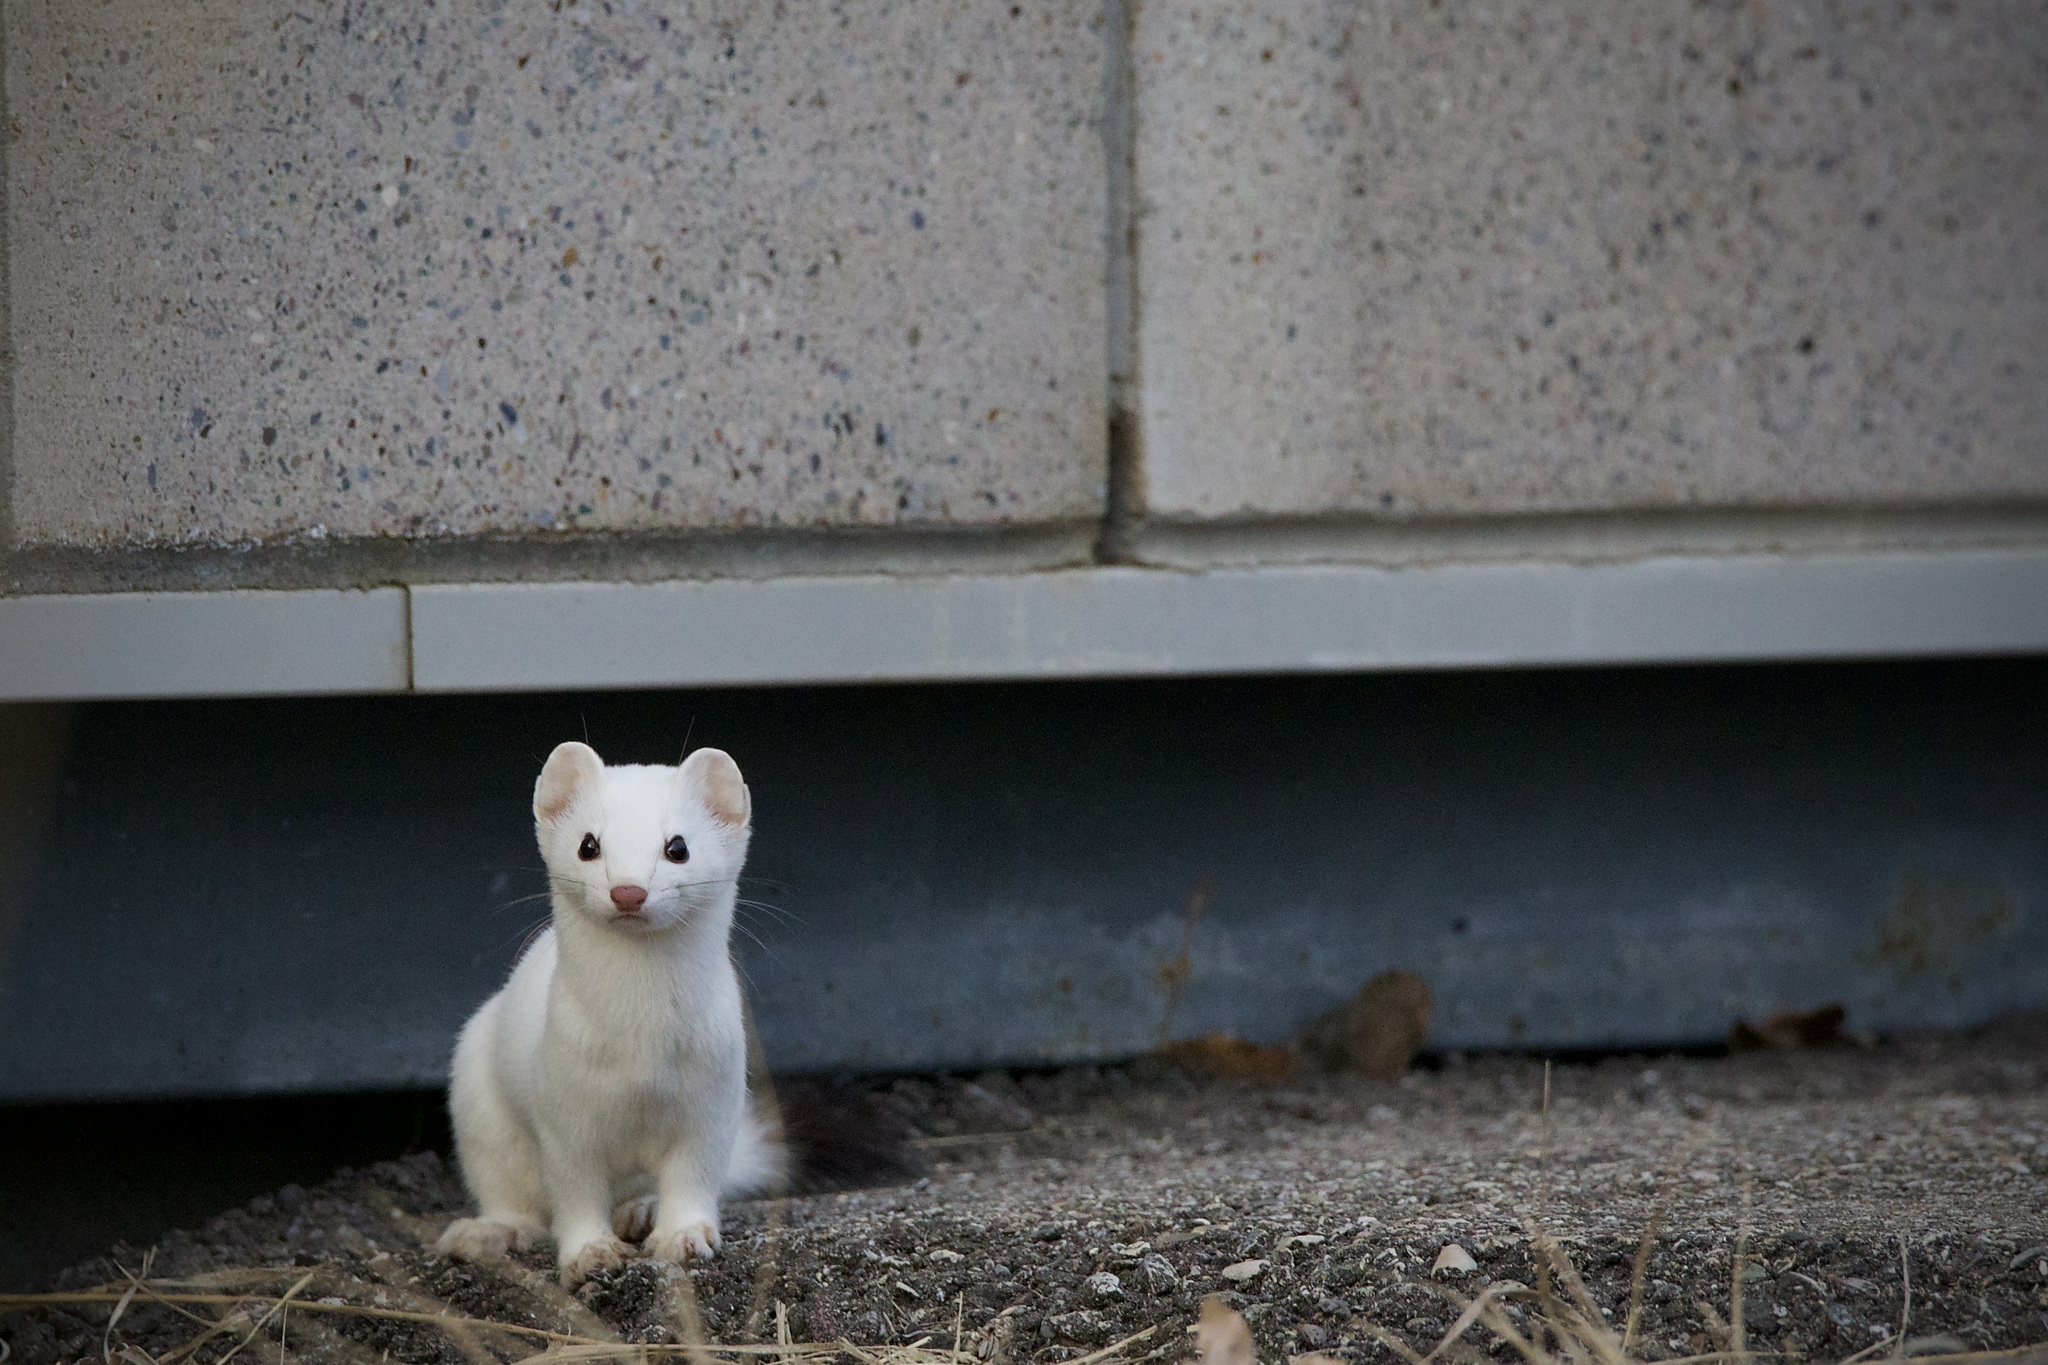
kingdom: Animalia
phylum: Chordata
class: Mammalia
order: Carnivora
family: Mustelidae
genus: Mustela
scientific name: Mustela
